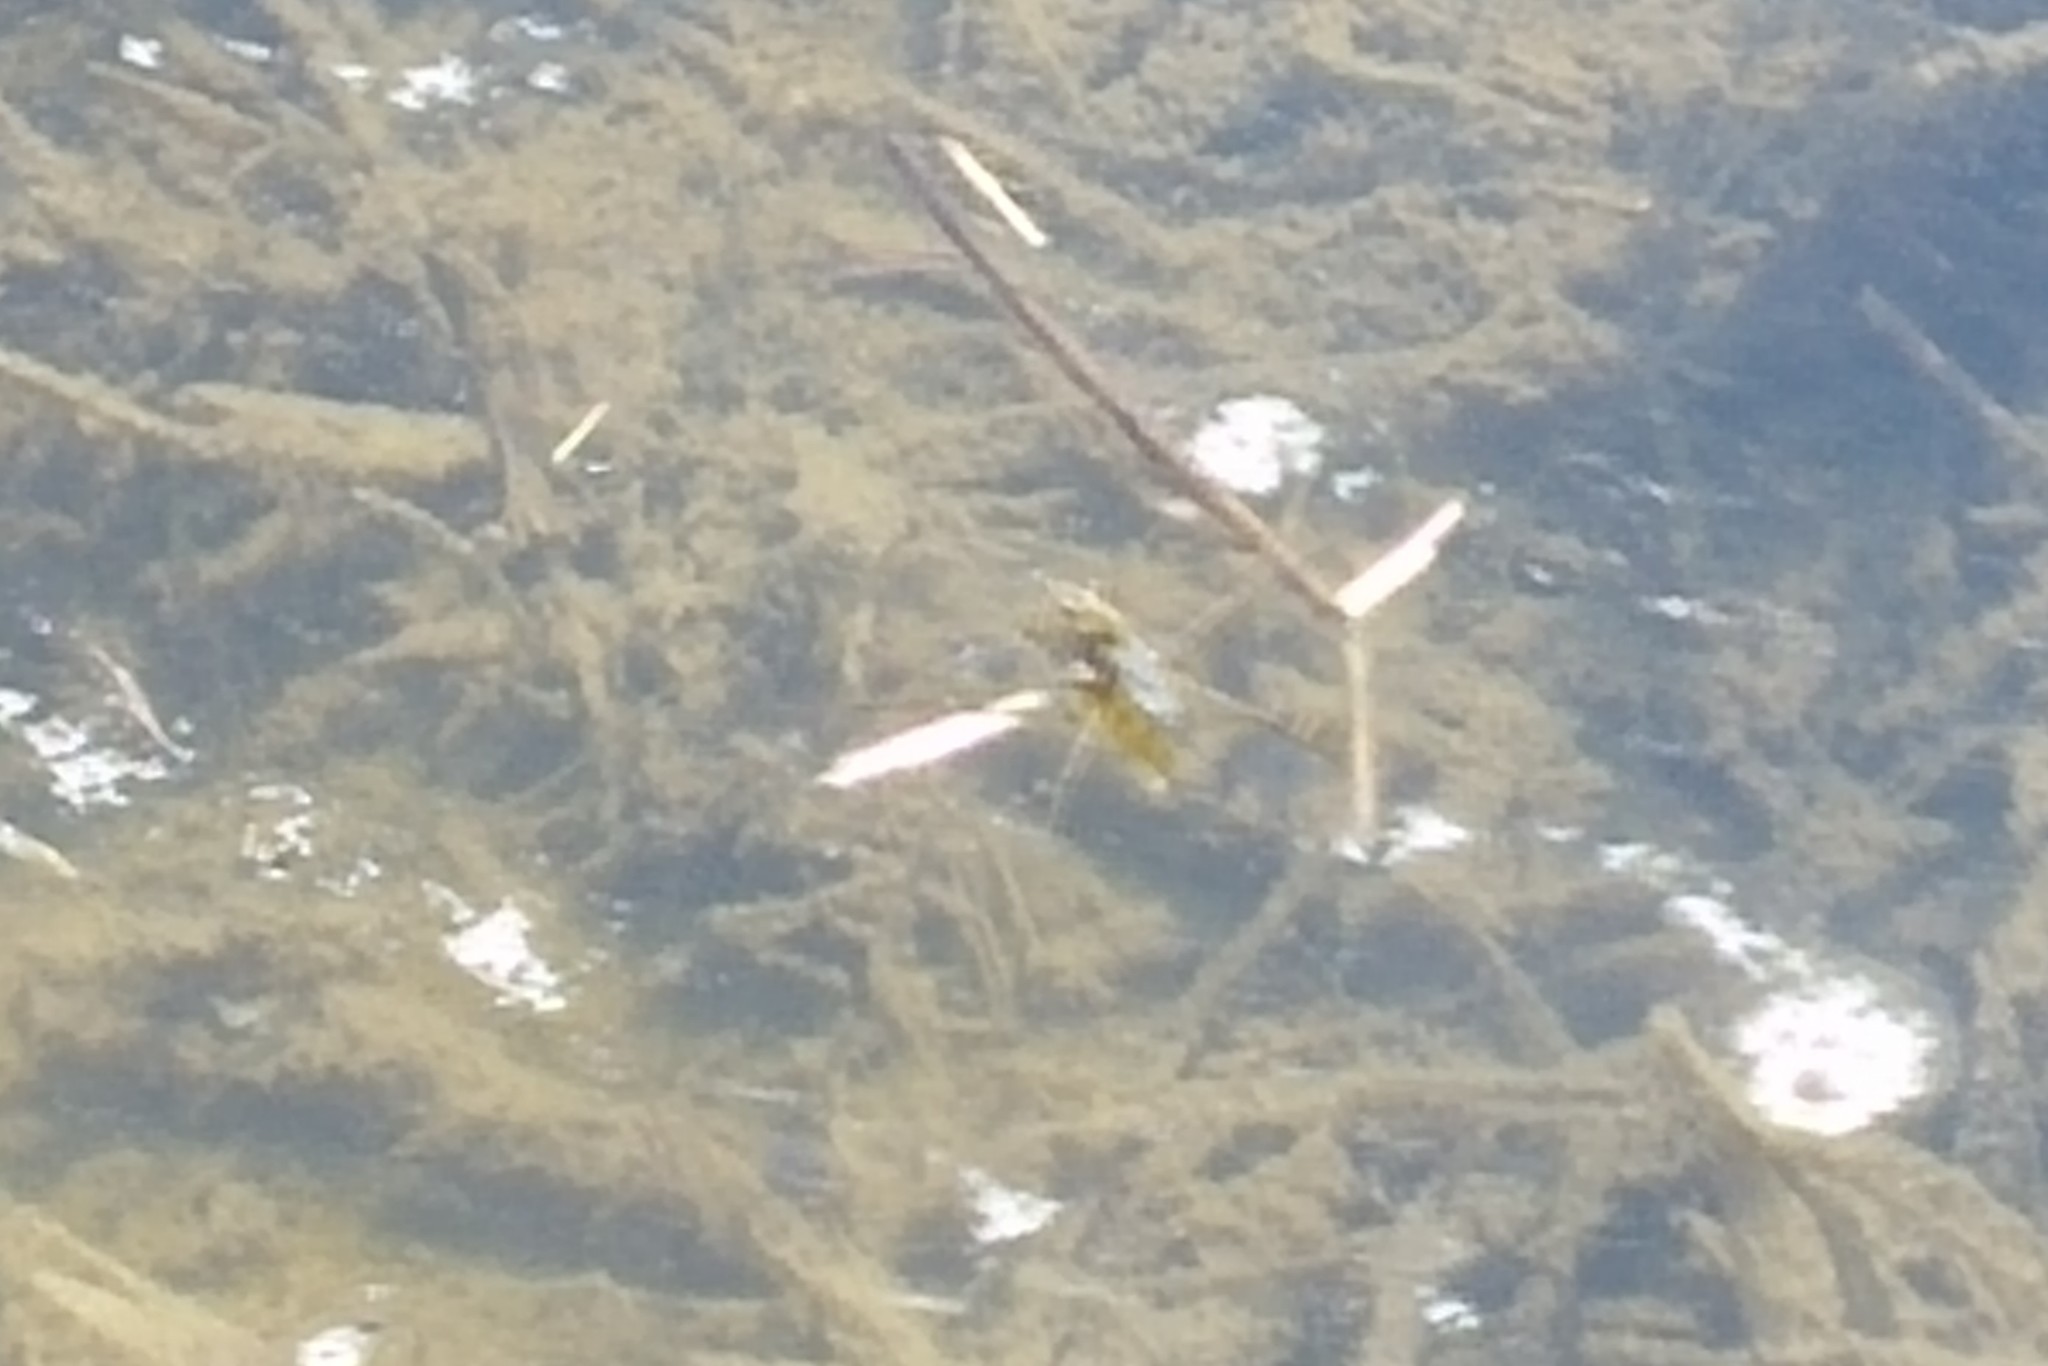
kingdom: Animalia
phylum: Arthropoda
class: Insecta
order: Hemiptera
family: Gerridae
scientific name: Gerridae
